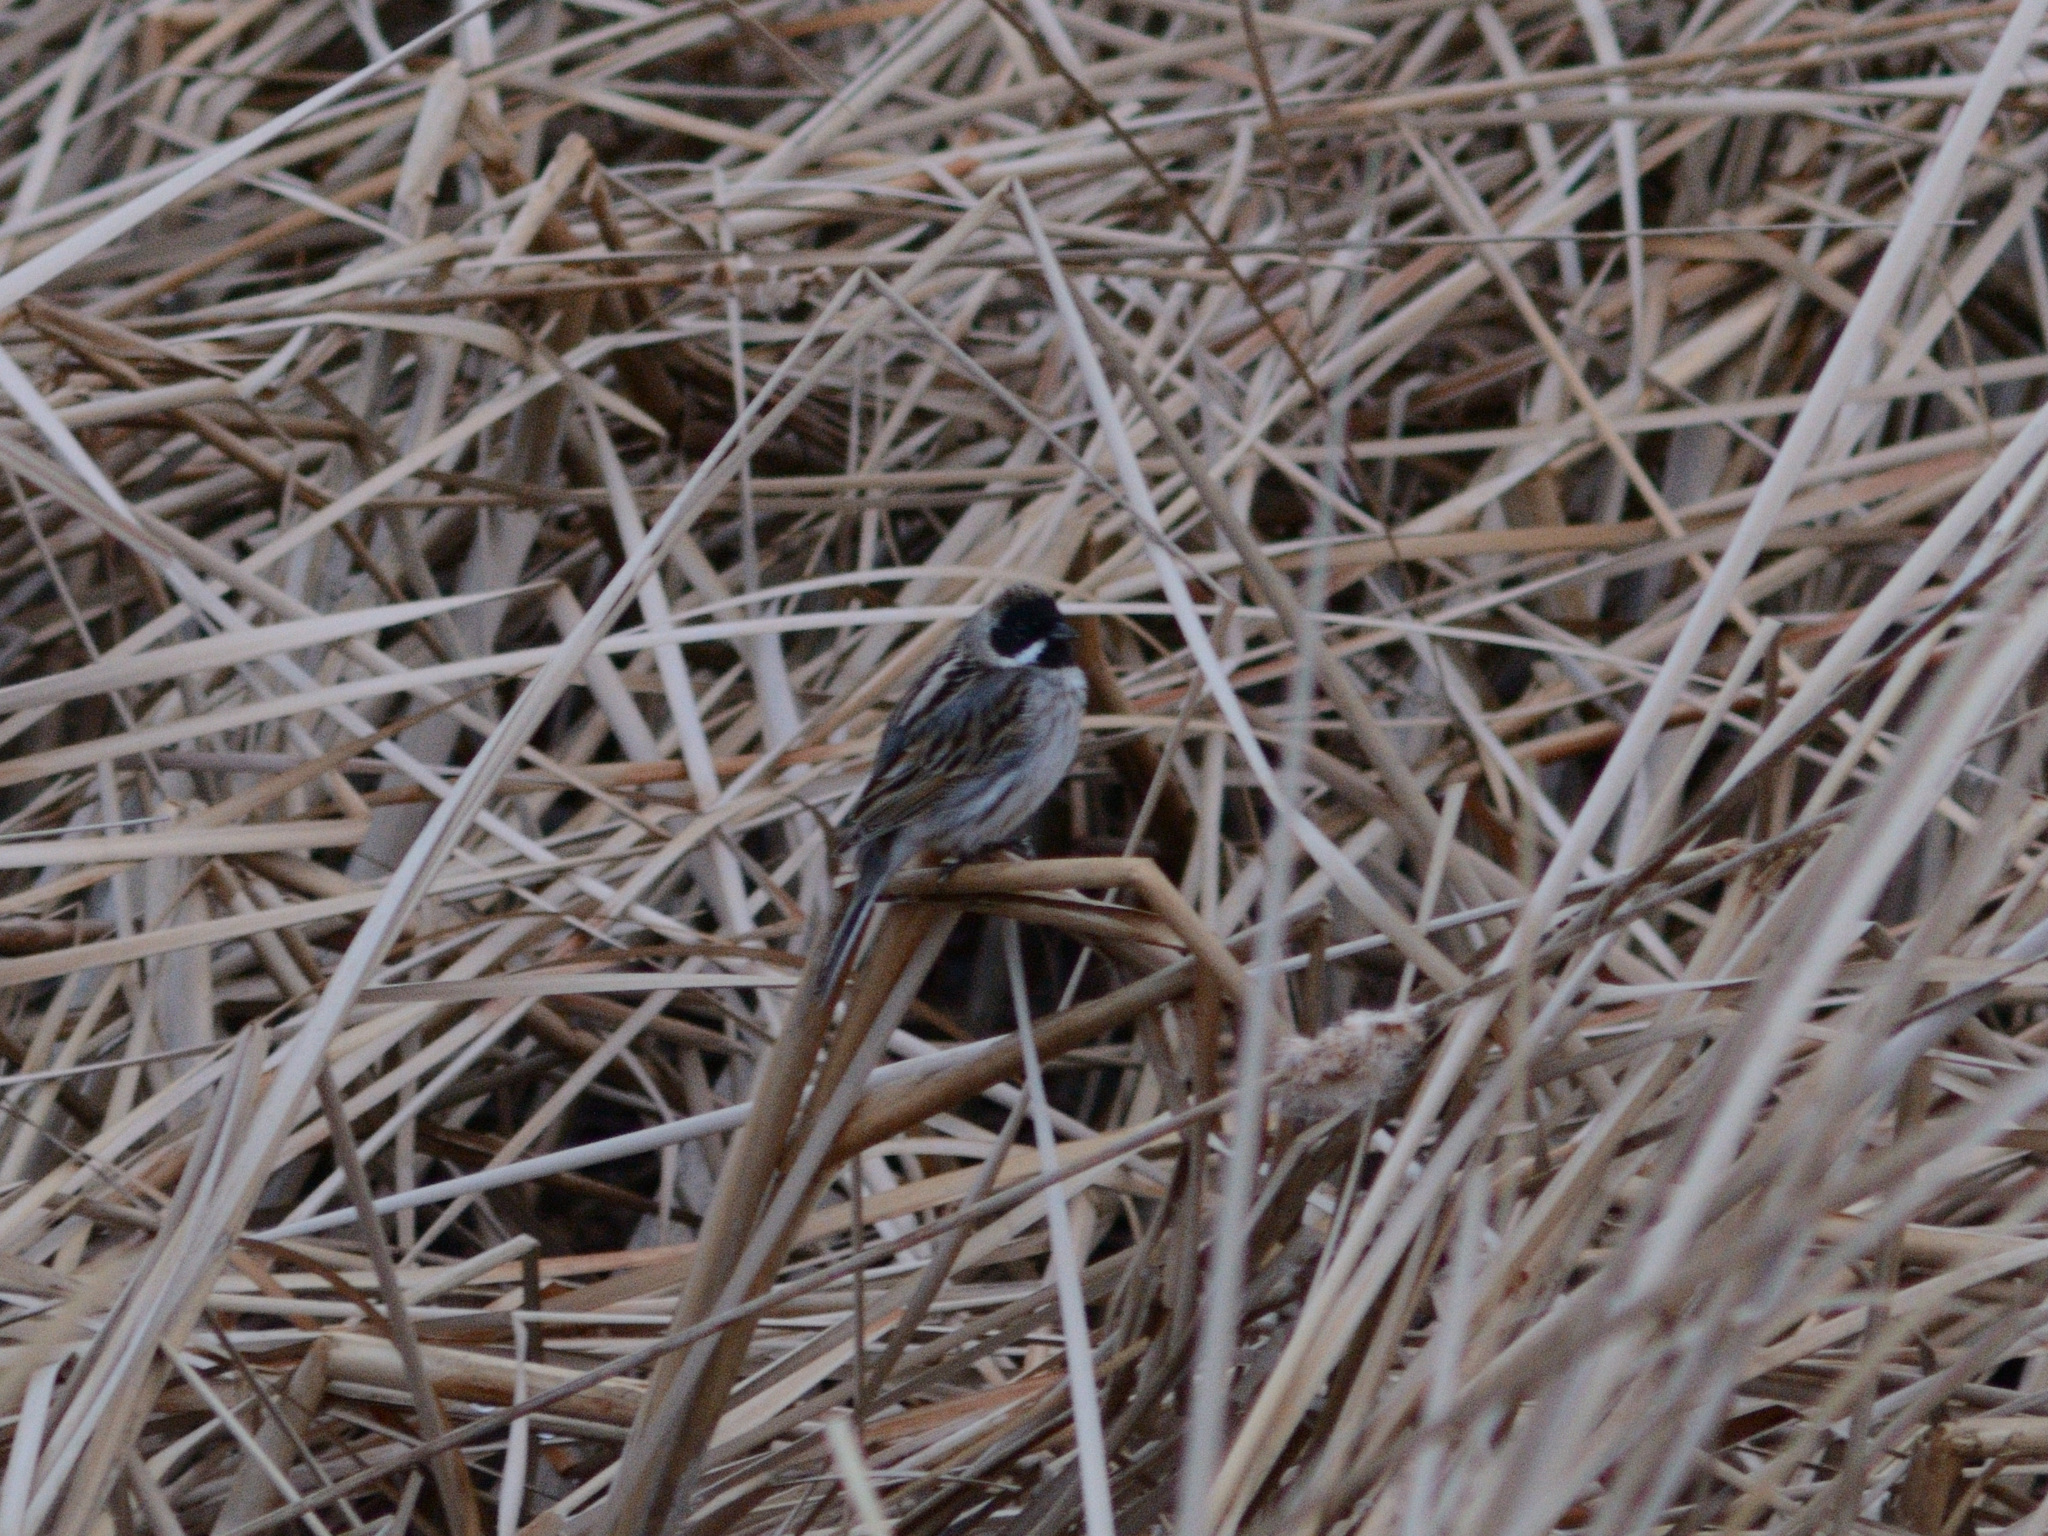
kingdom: Animalia
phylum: Chordata
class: Aves
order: Passeriformes
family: Emberizidae
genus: Emberiza
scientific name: Emberiza schoeniclus
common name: Reed bunting
